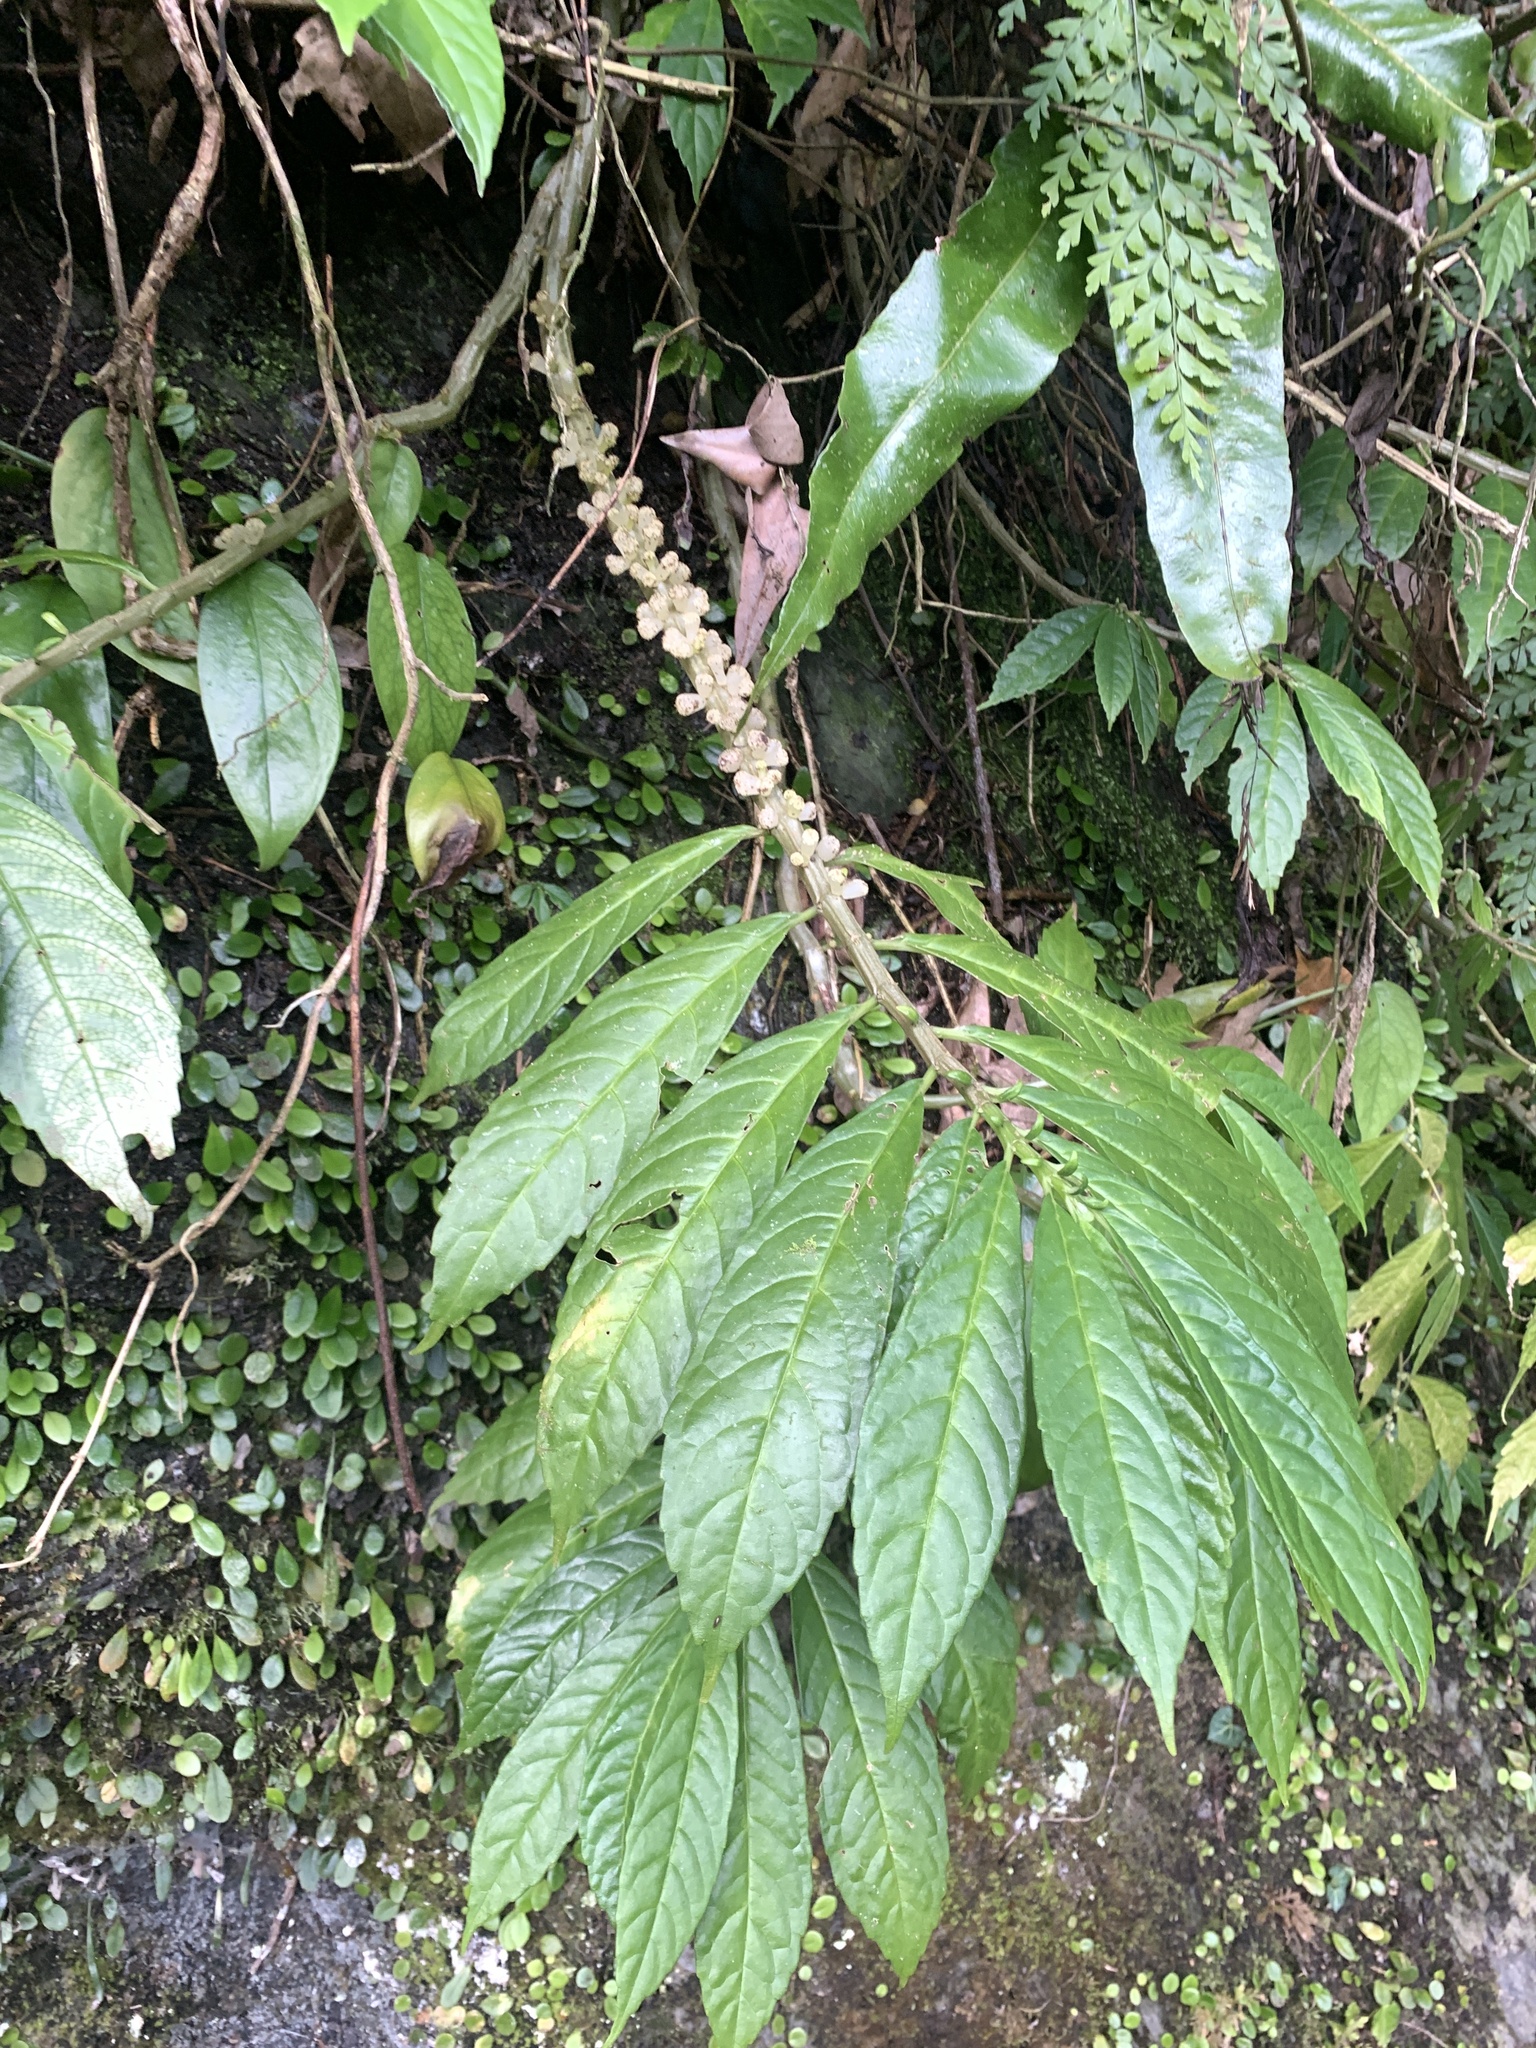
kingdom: Plantae
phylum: Tracheophyta
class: Magnoliopsida
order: Rosales
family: Urticaceae
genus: Procris
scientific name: Procris
